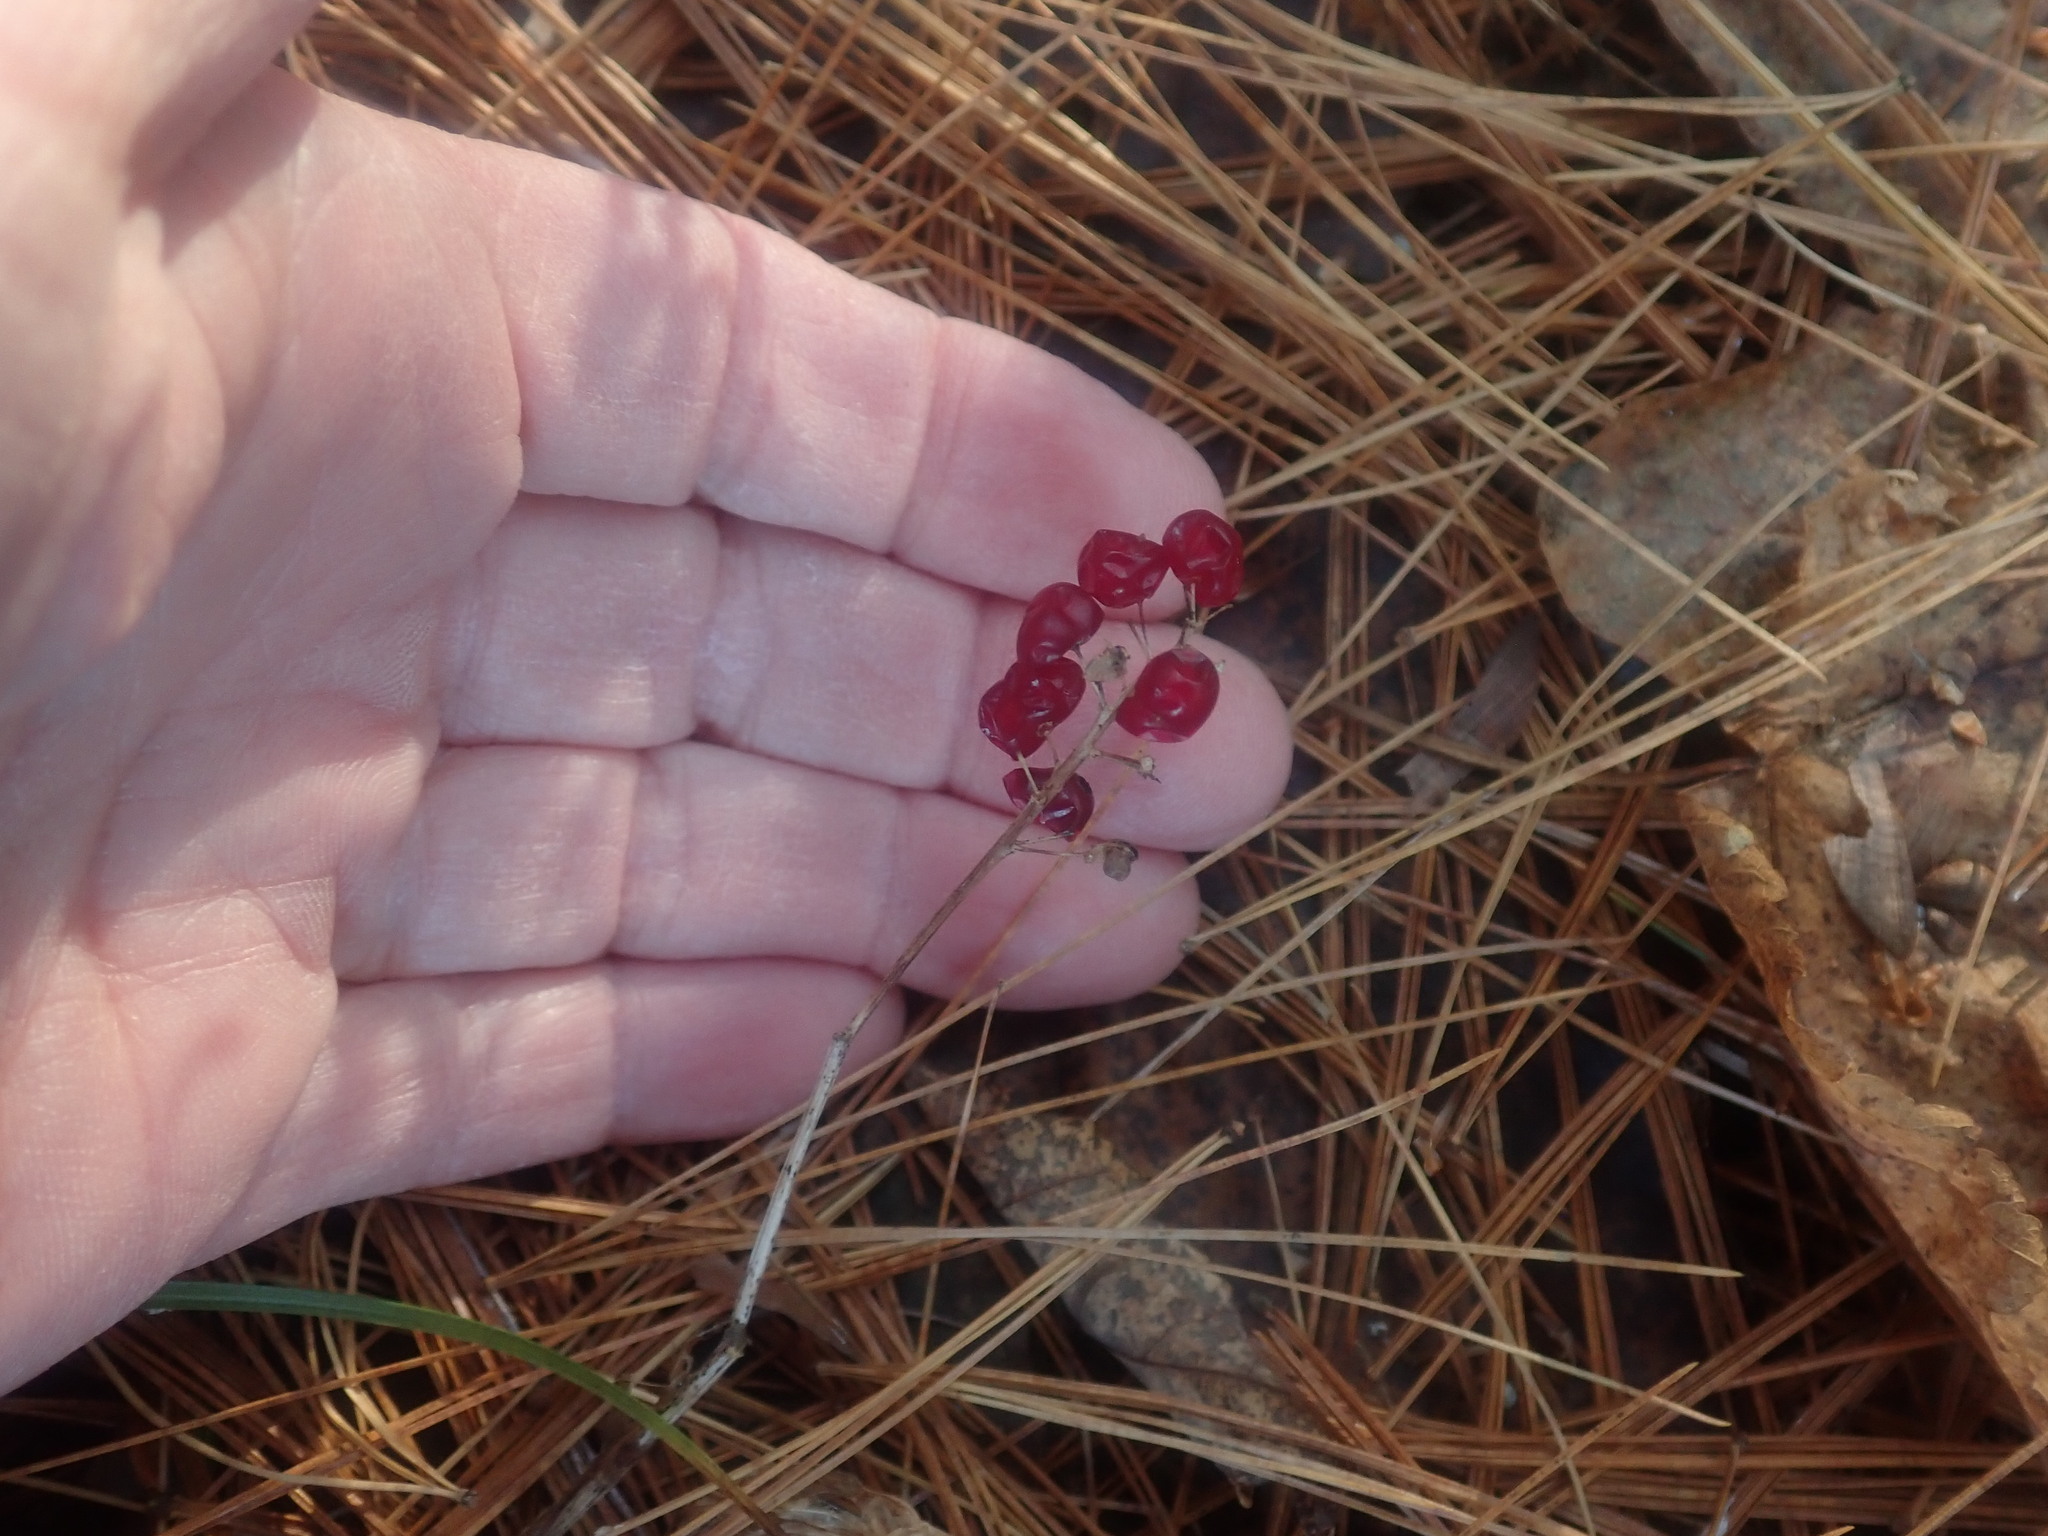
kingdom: Plantae
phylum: Tracheophyta
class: Liliopsida
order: Asparagales
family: Asparagaceae
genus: Maianthemum
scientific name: Maianthemum canadense
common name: False lily-of-the-valley
